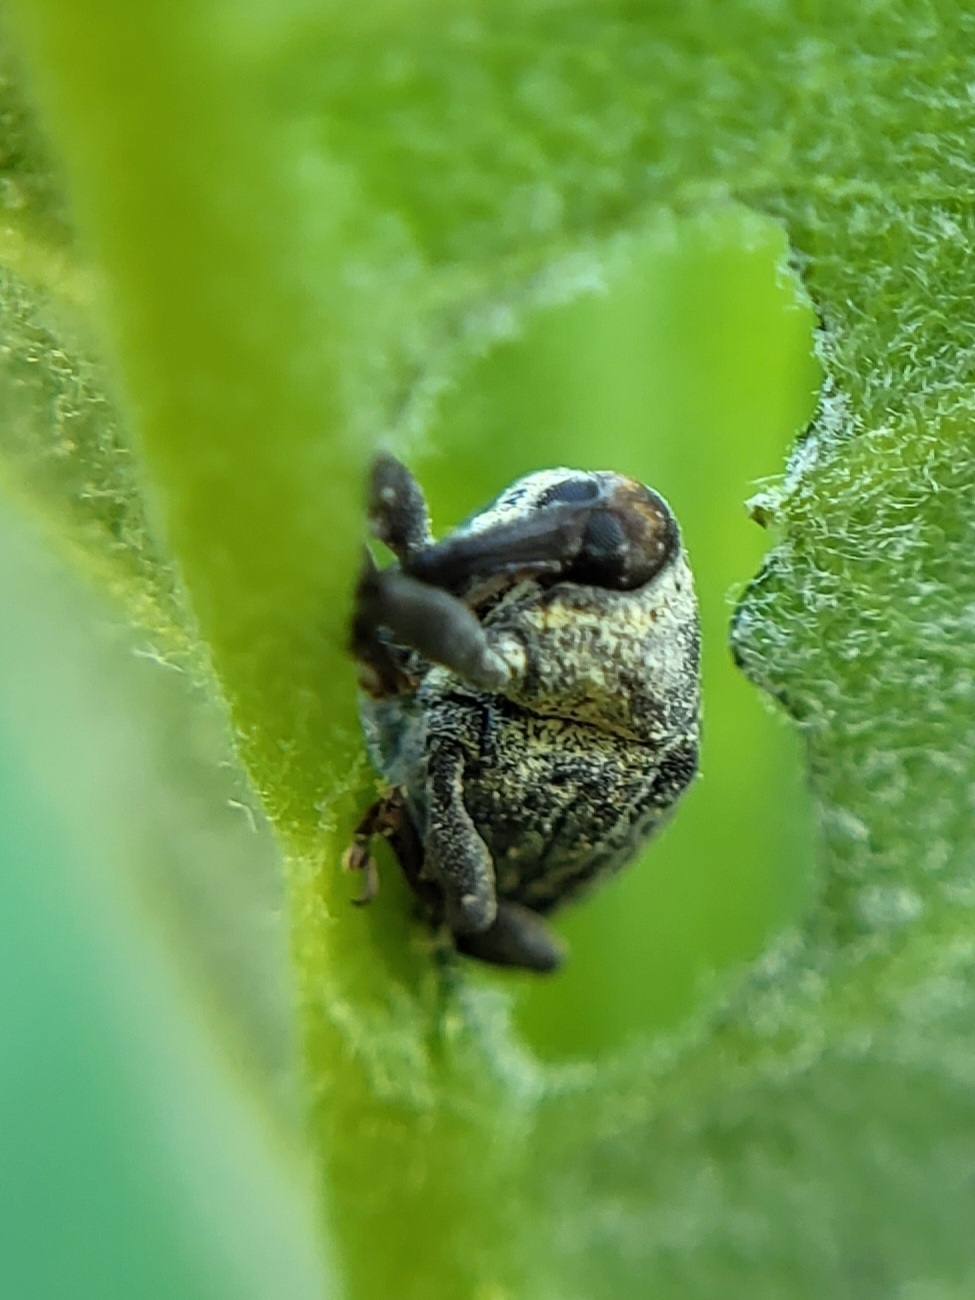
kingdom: Animalia
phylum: Arthropoda
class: Insecta
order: Coleoptera
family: Curculionidae
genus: Rhyssomatus
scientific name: Rhyssomatus lineaticollis
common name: Milkweed stem weevil
